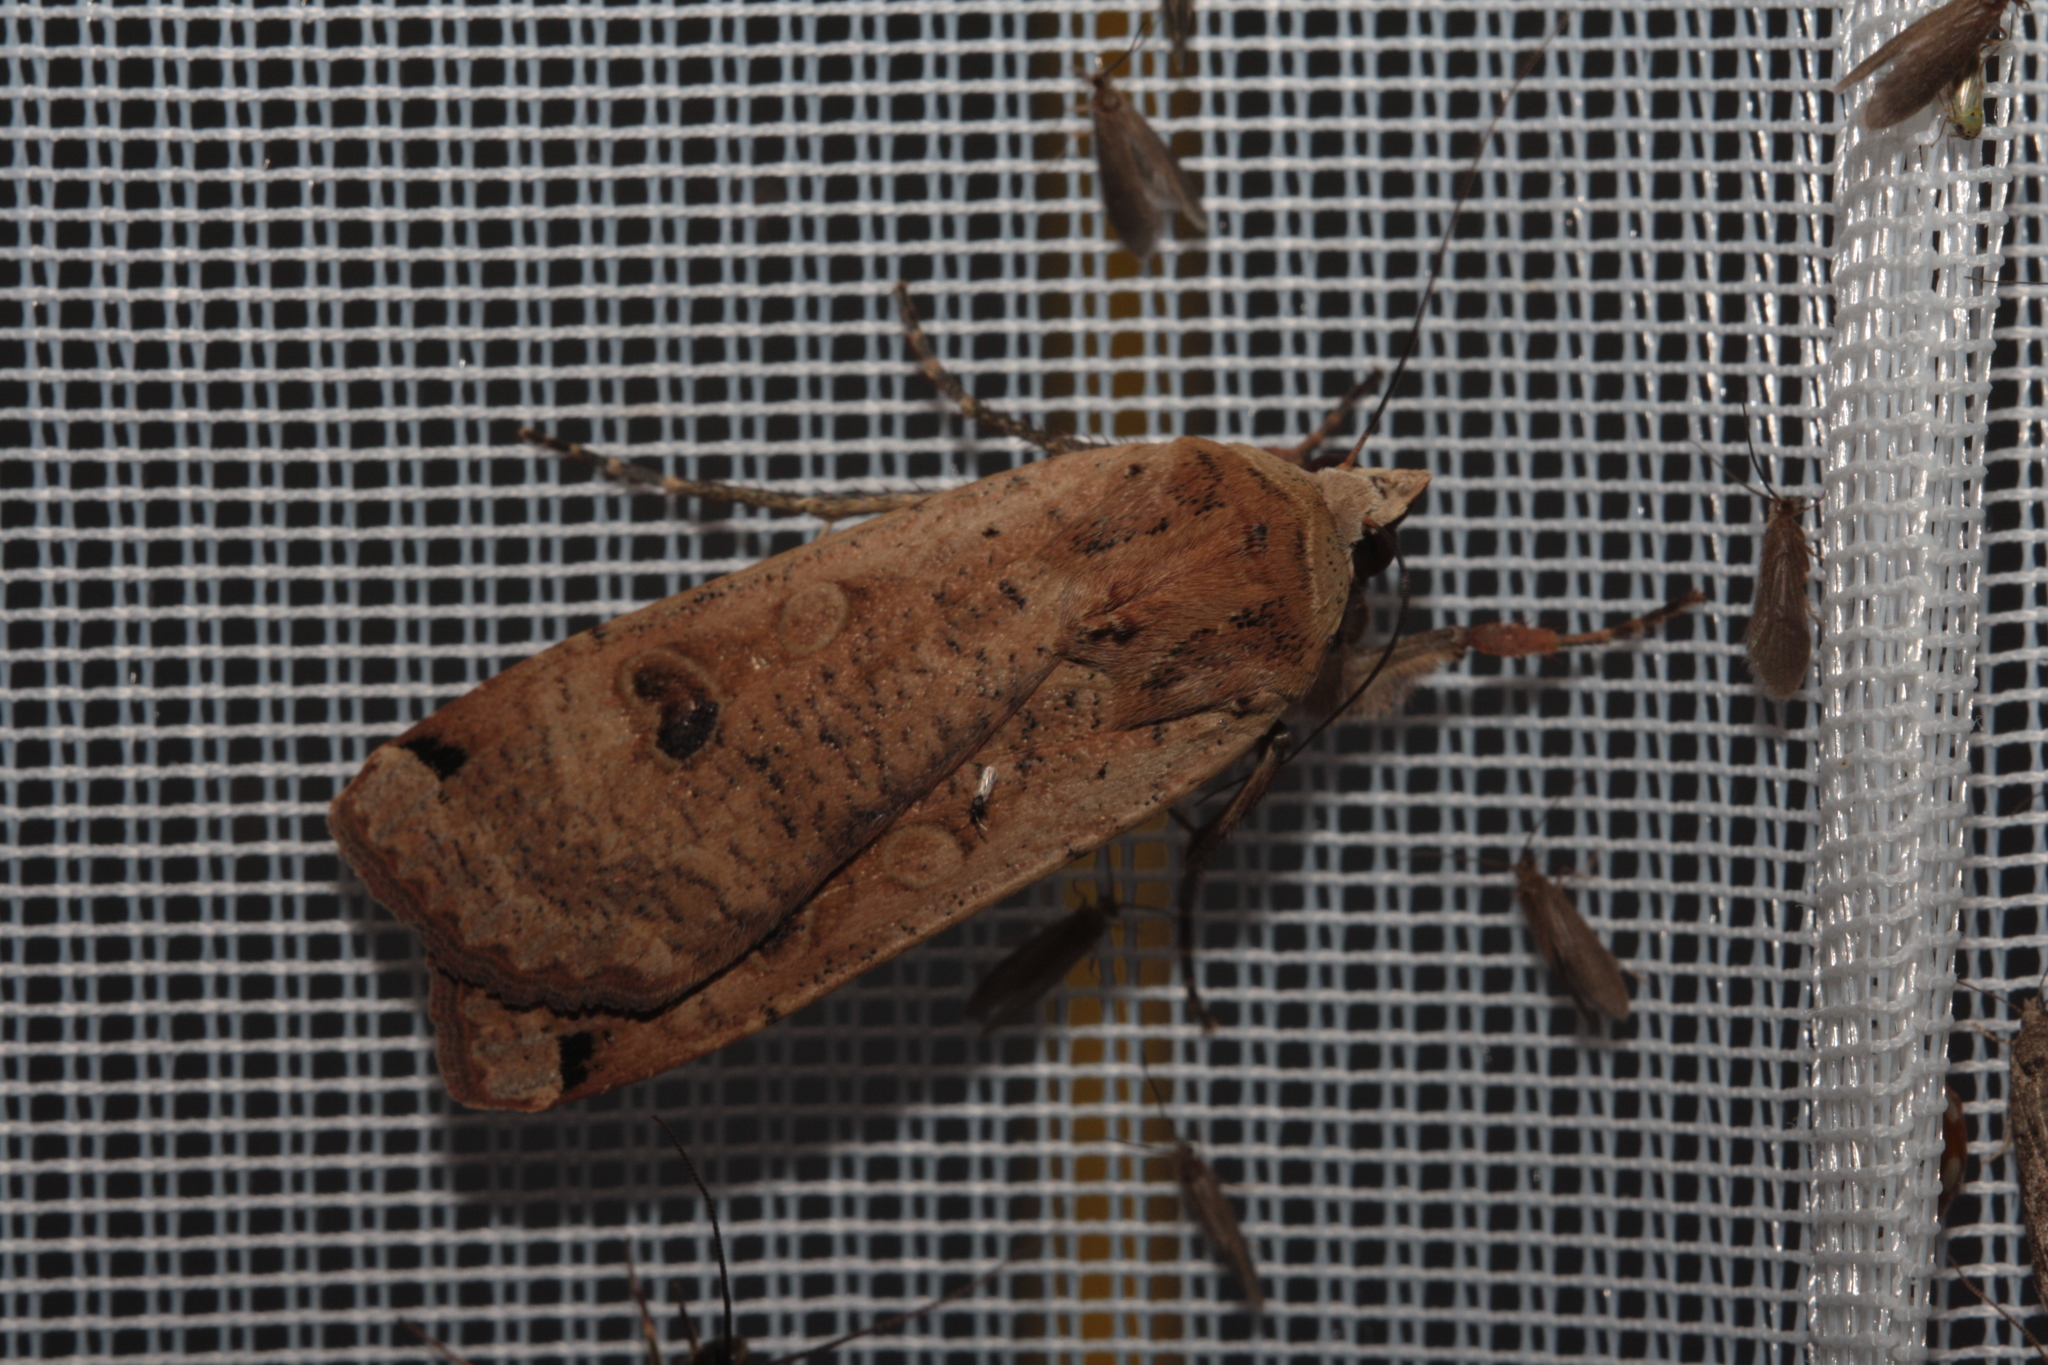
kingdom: Animalia
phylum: Arthropoda
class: Insecta
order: Lepidoptera
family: Noctuidae
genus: Noctua
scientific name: Noctua pronuba
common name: Large yellow underwing
